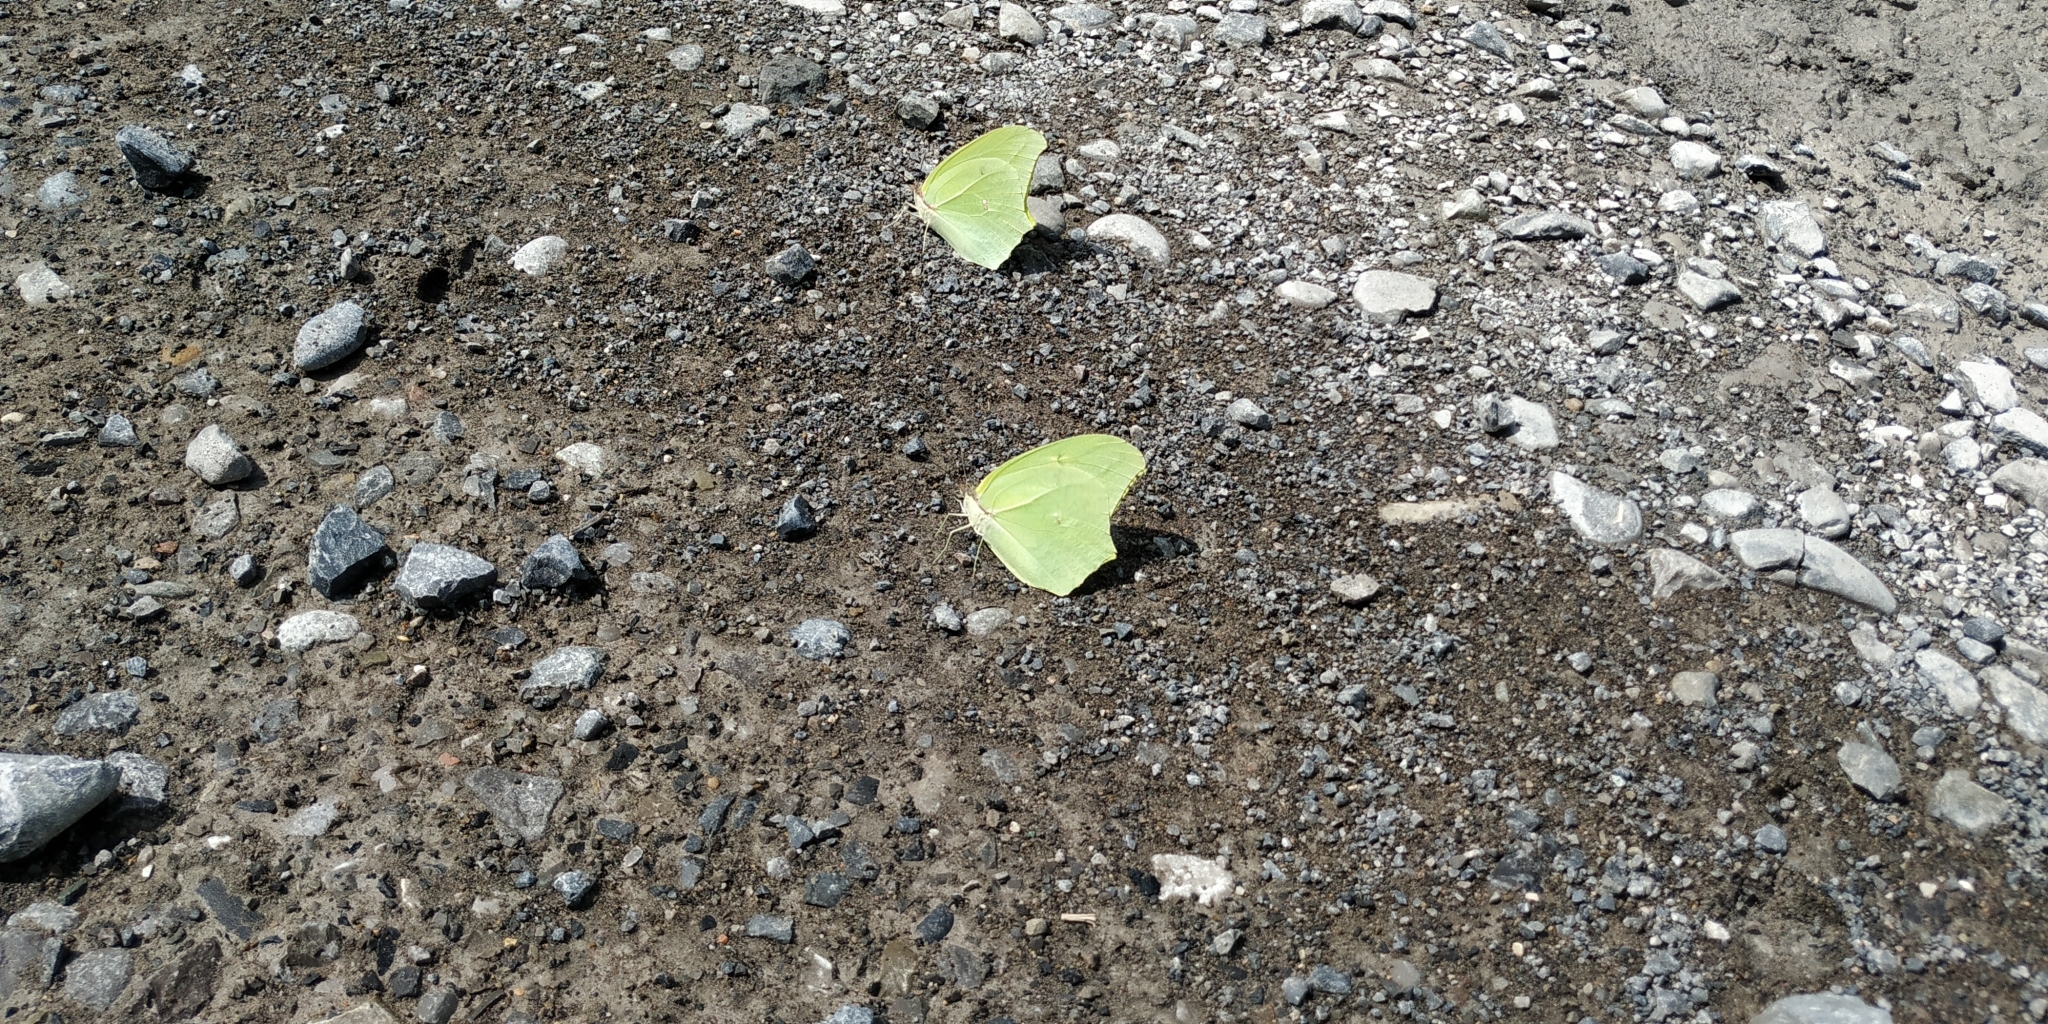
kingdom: Animalia
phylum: Arthropoda
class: Insecta
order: Lepidoptera
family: Pieridae
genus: Anteos
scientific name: Anteos maerula
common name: Angled sulphur
